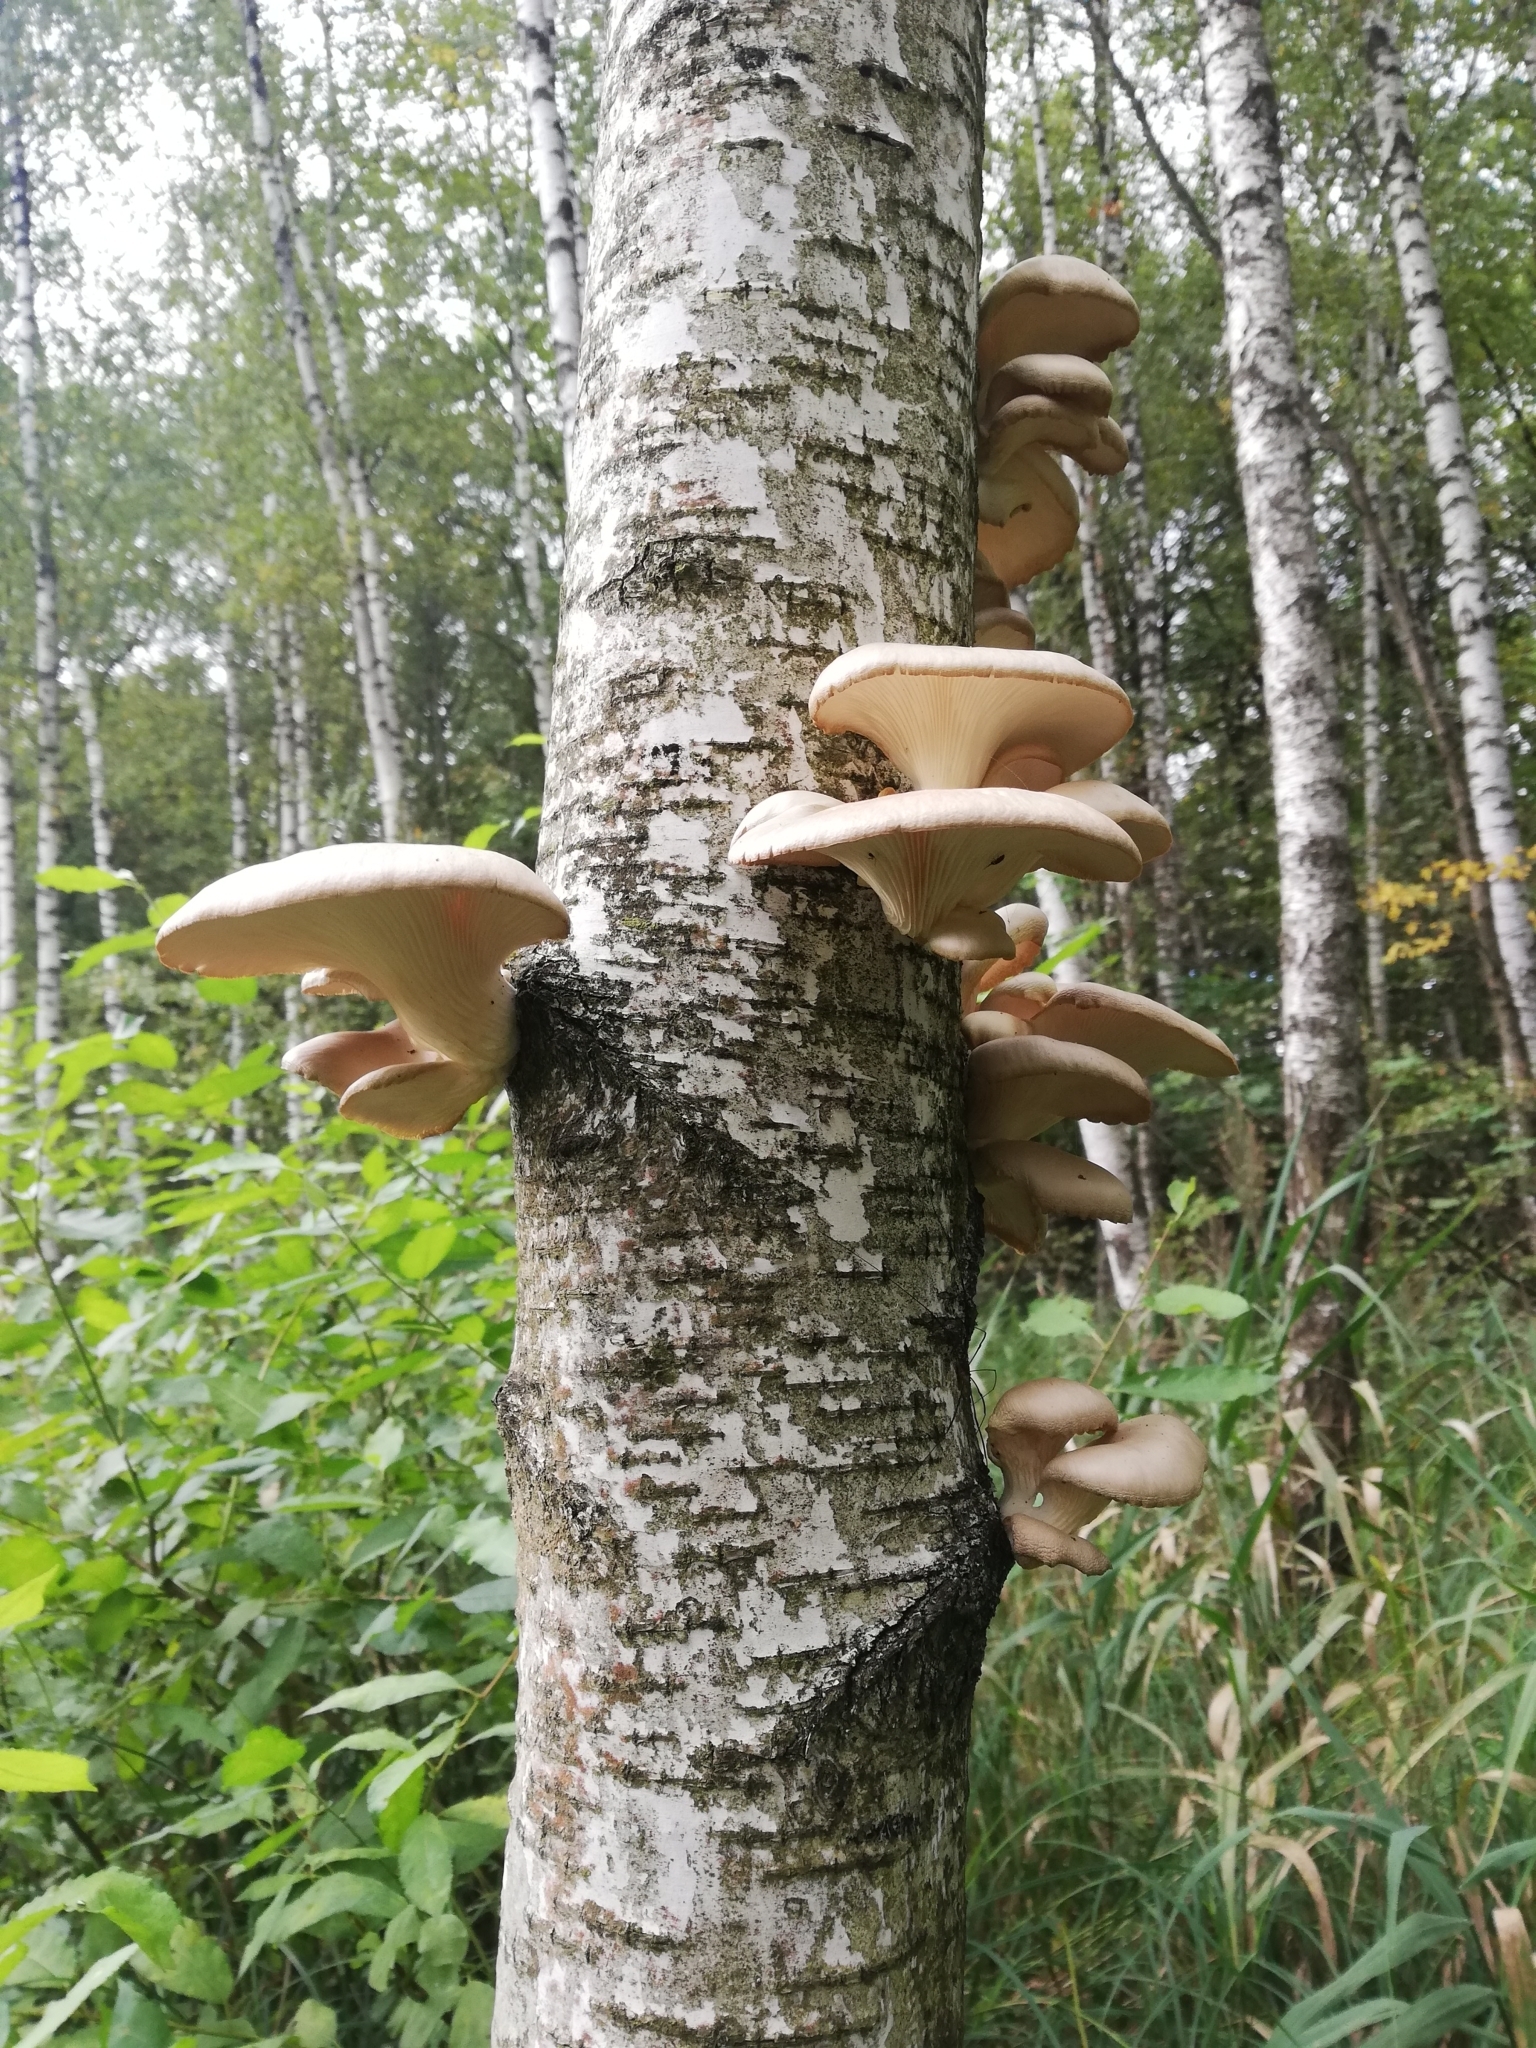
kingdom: Fungi
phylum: Basidiomycota
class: Agaricomycetes
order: Agaricales
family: Pleurotaceae
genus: Pleurotus
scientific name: Pleurotus pulmonarius
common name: Pale oyster
